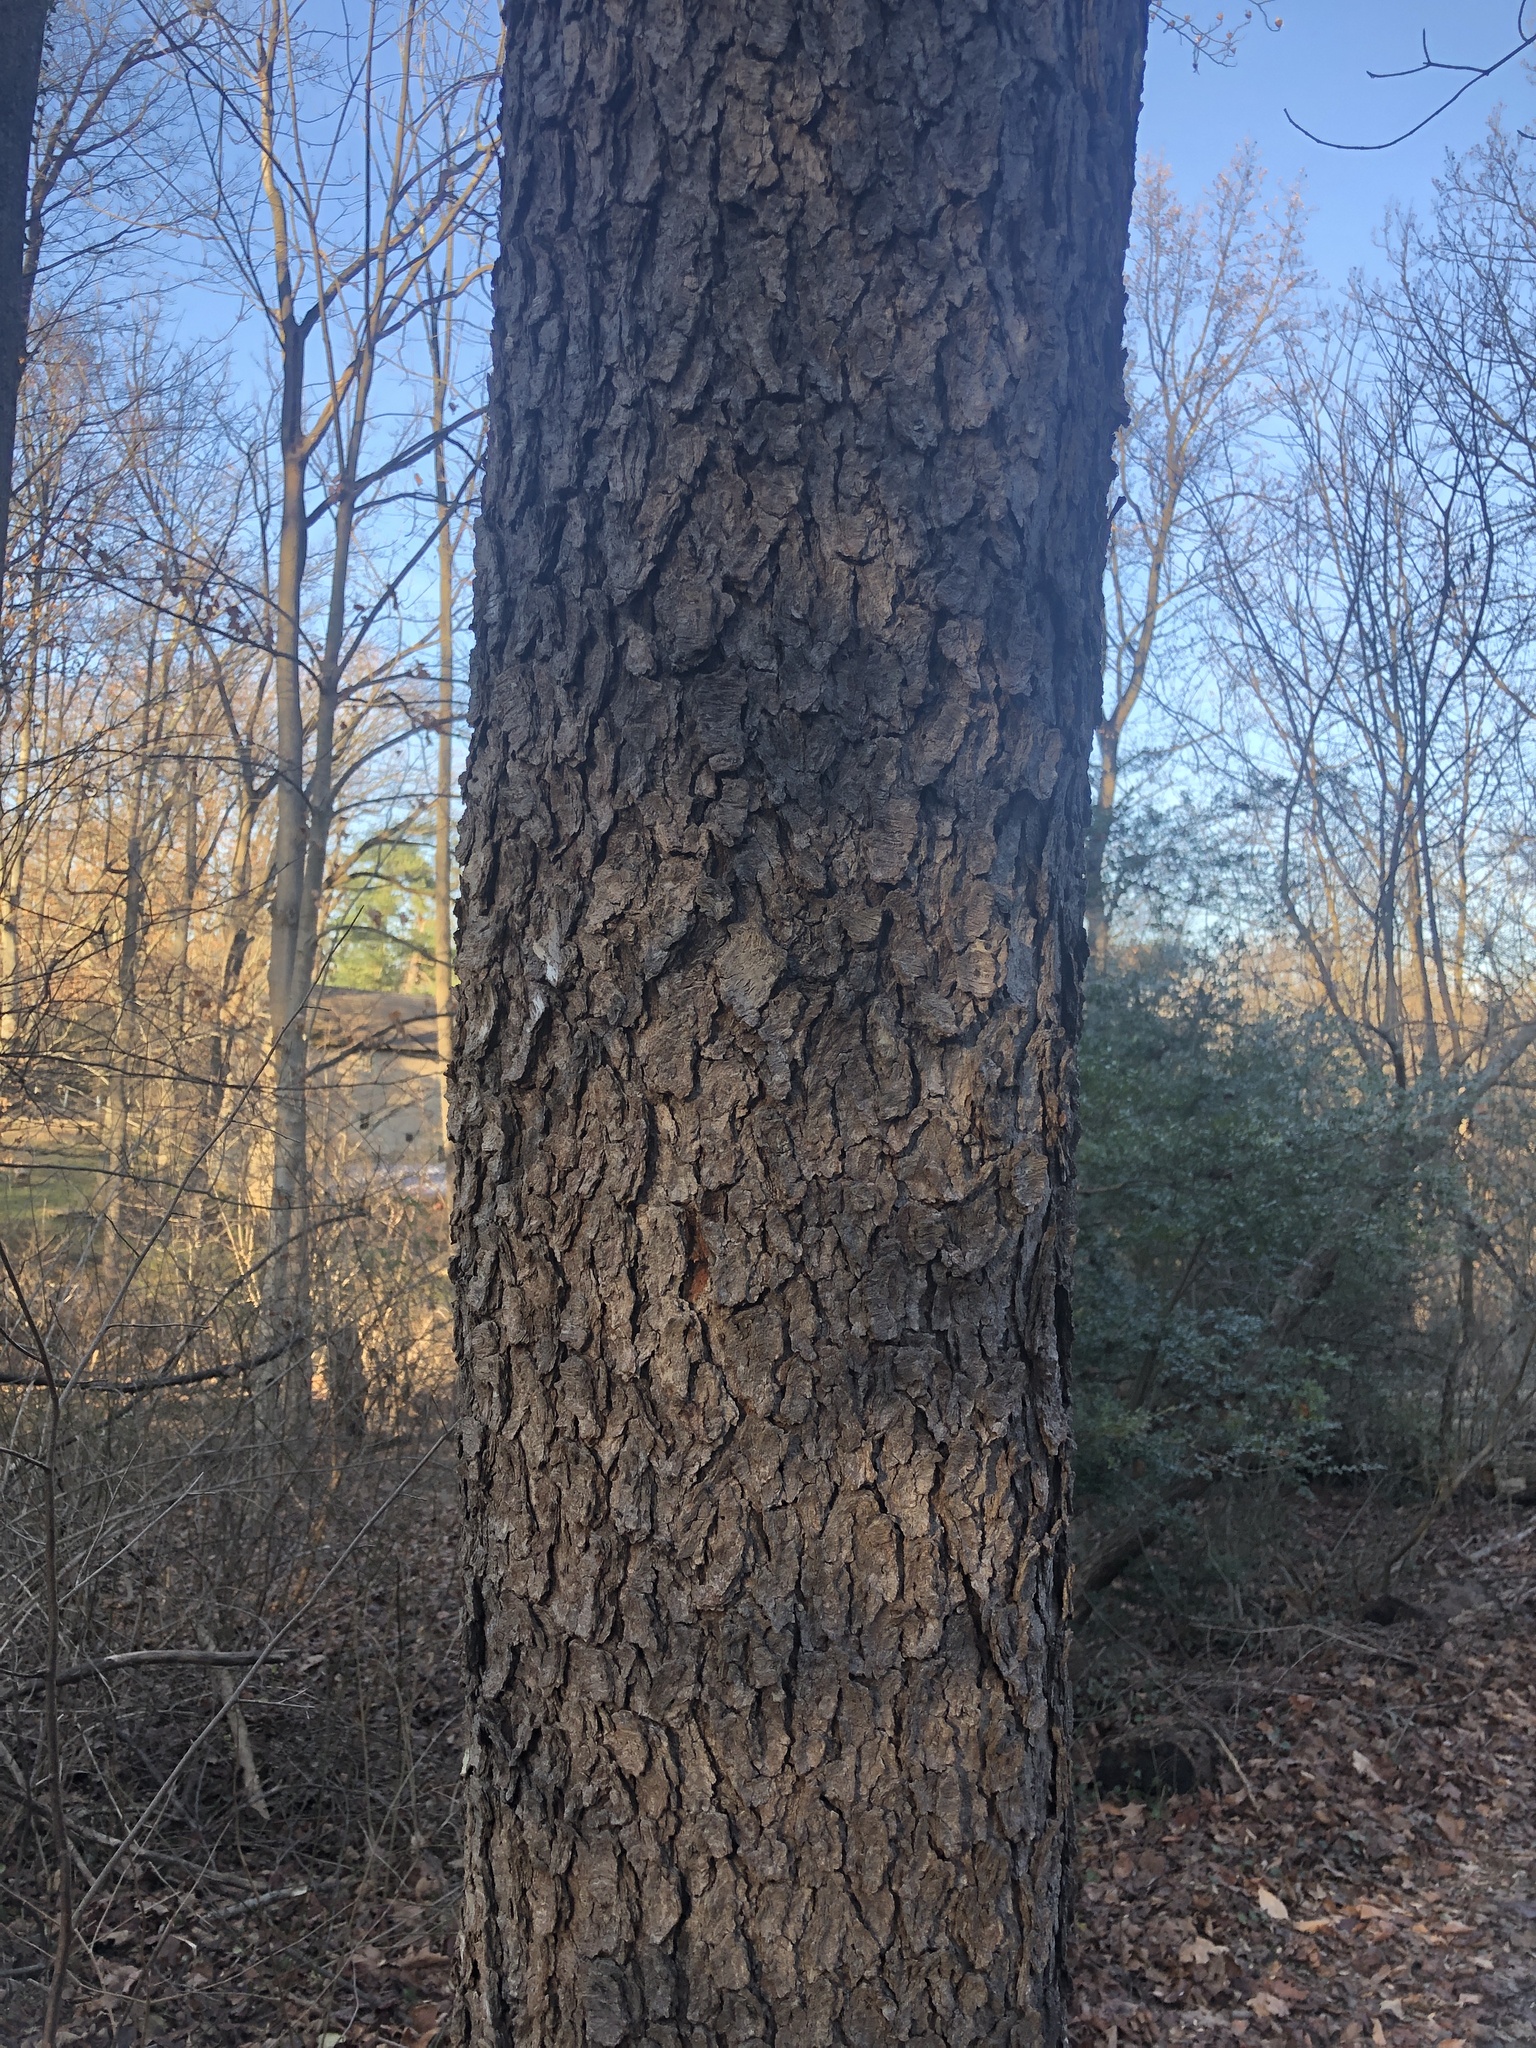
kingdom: Plantae
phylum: Tracheophyta
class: Magnoliopsida
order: Rosales
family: Rosaceae
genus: Prunus
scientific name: Prunus serotina
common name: Black cherry
